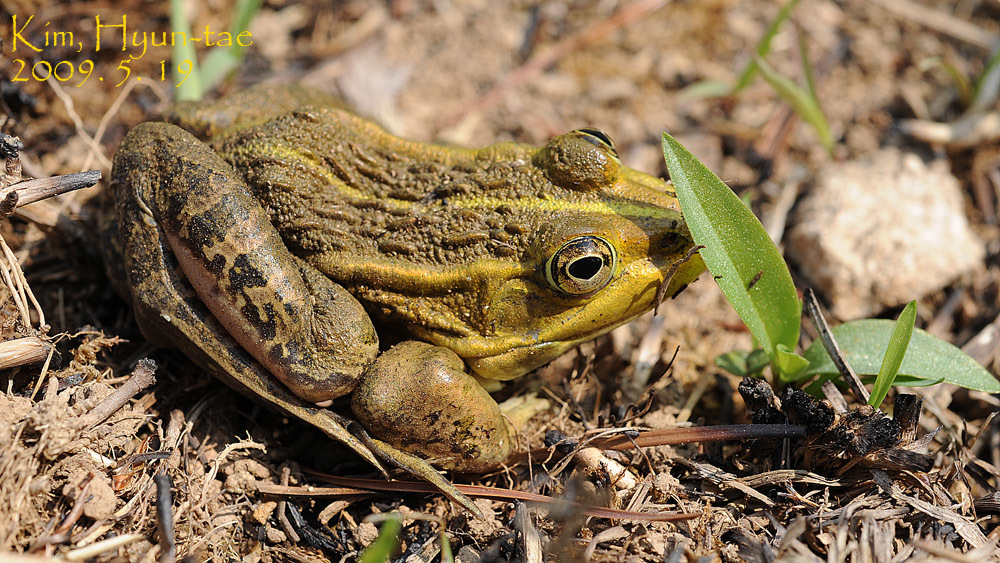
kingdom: Animalia
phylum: Chordata
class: Amphibia
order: Anura
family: Ranidae
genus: Pelophylax
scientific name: Pelophylax nigromaculatus
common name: Black-spotted pond frog
